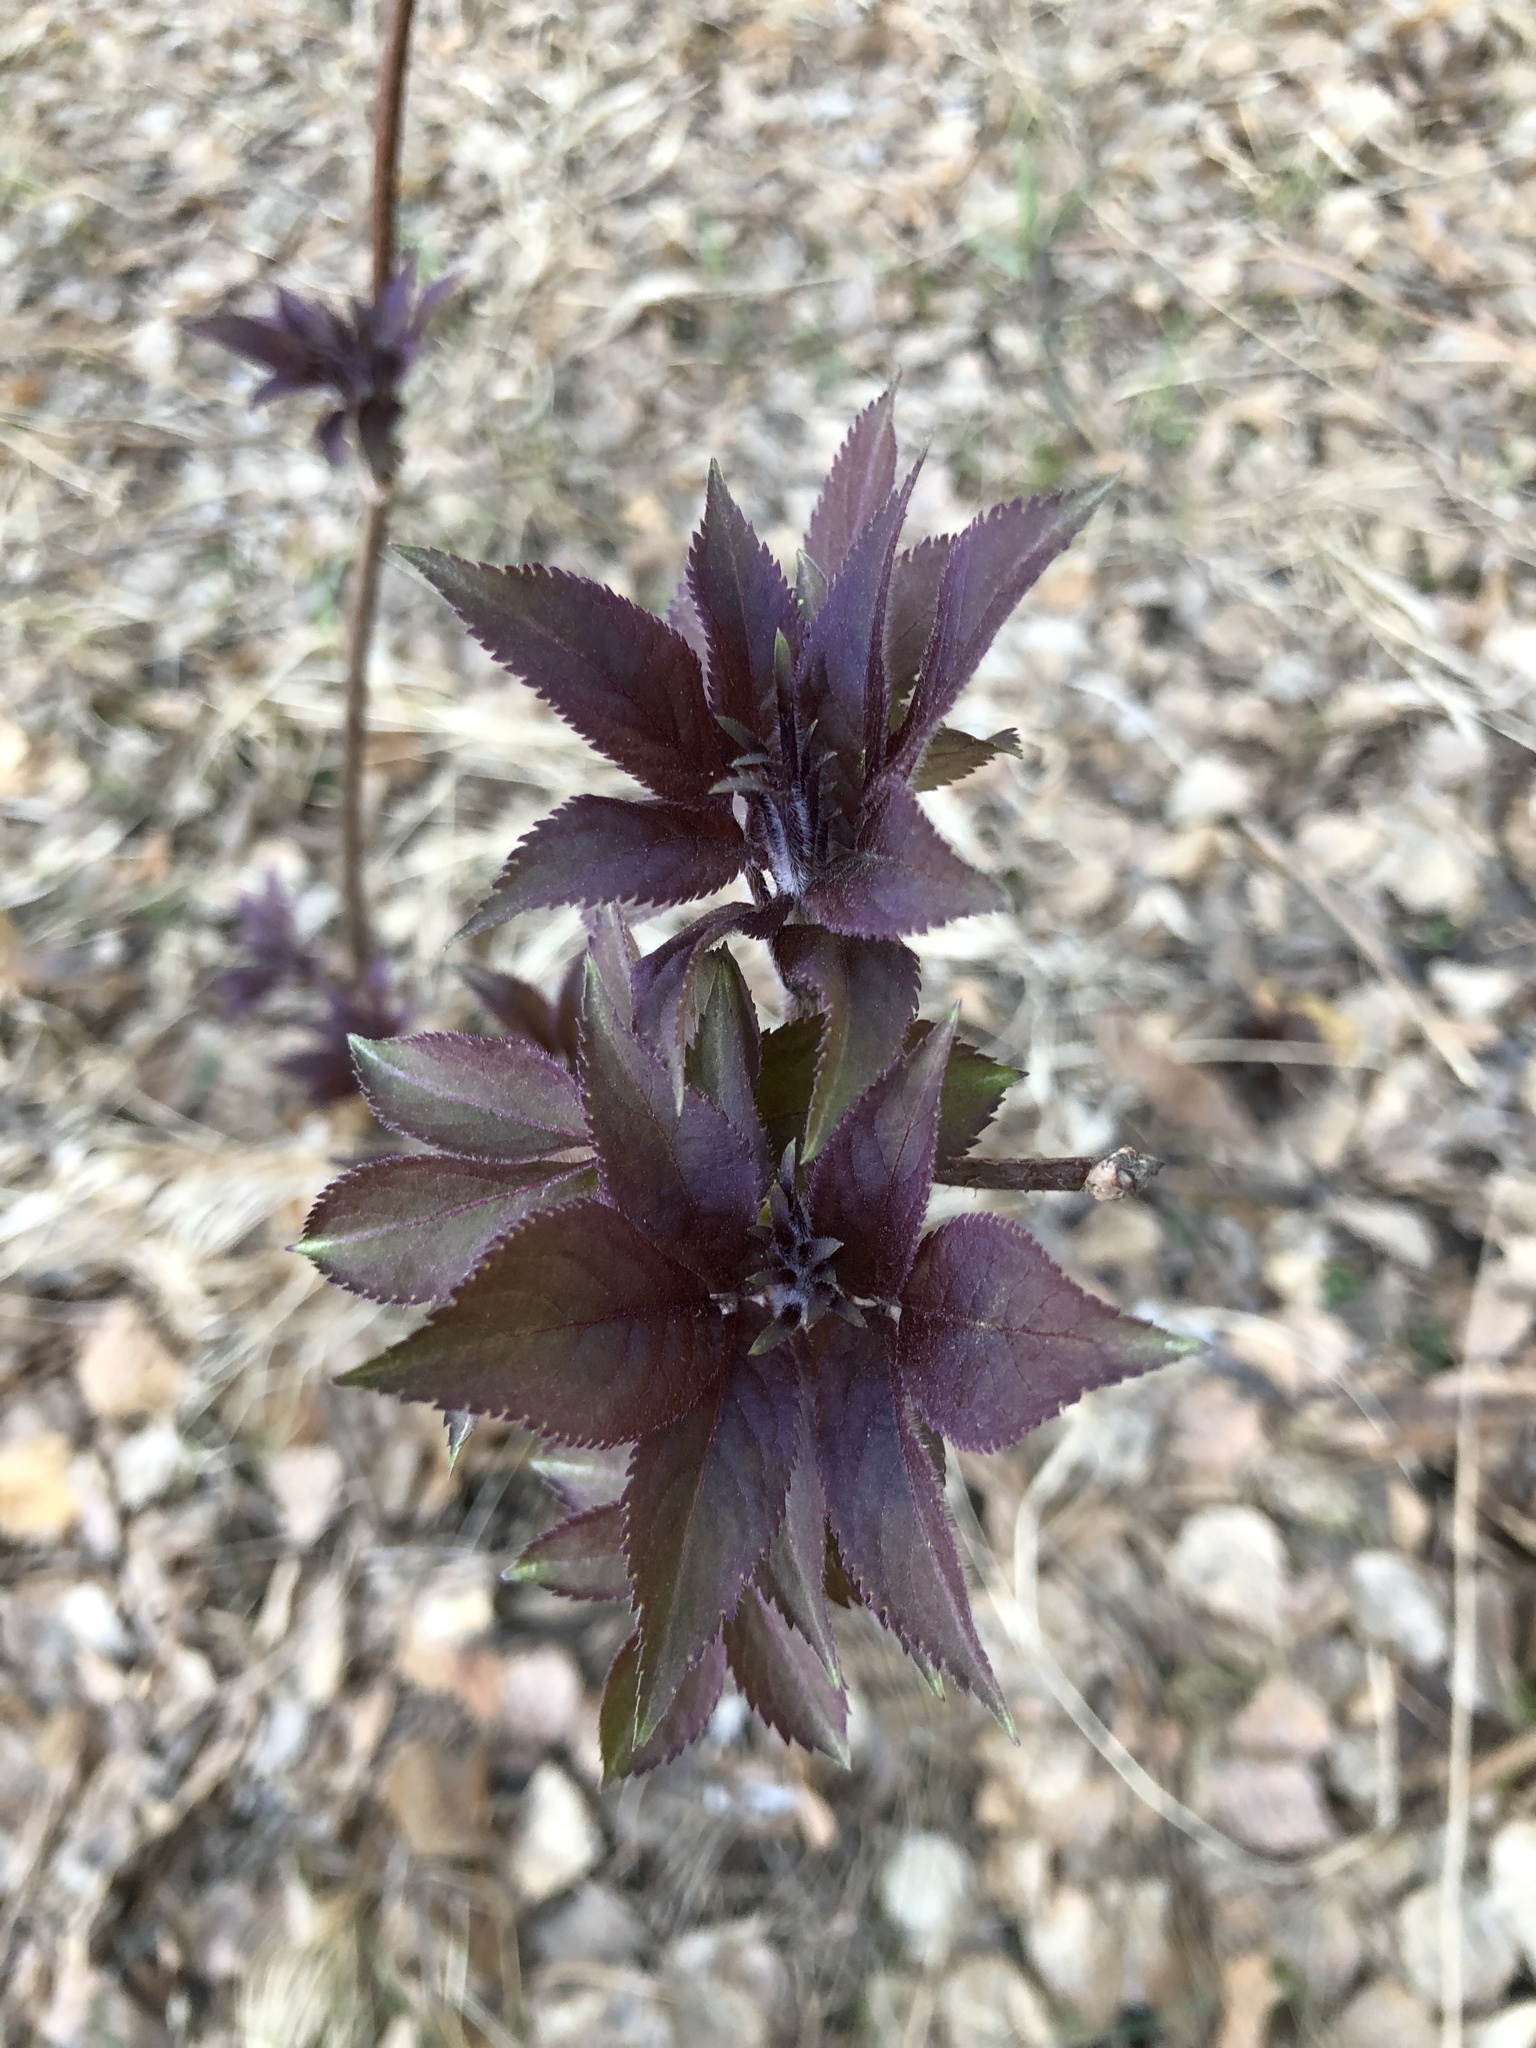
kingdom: Plantae
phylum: Tracheophyta
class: Magnoliopsida
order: Dipsacales
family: Viburnaceae
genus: Sambucus
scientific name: Sambucus sibirica
